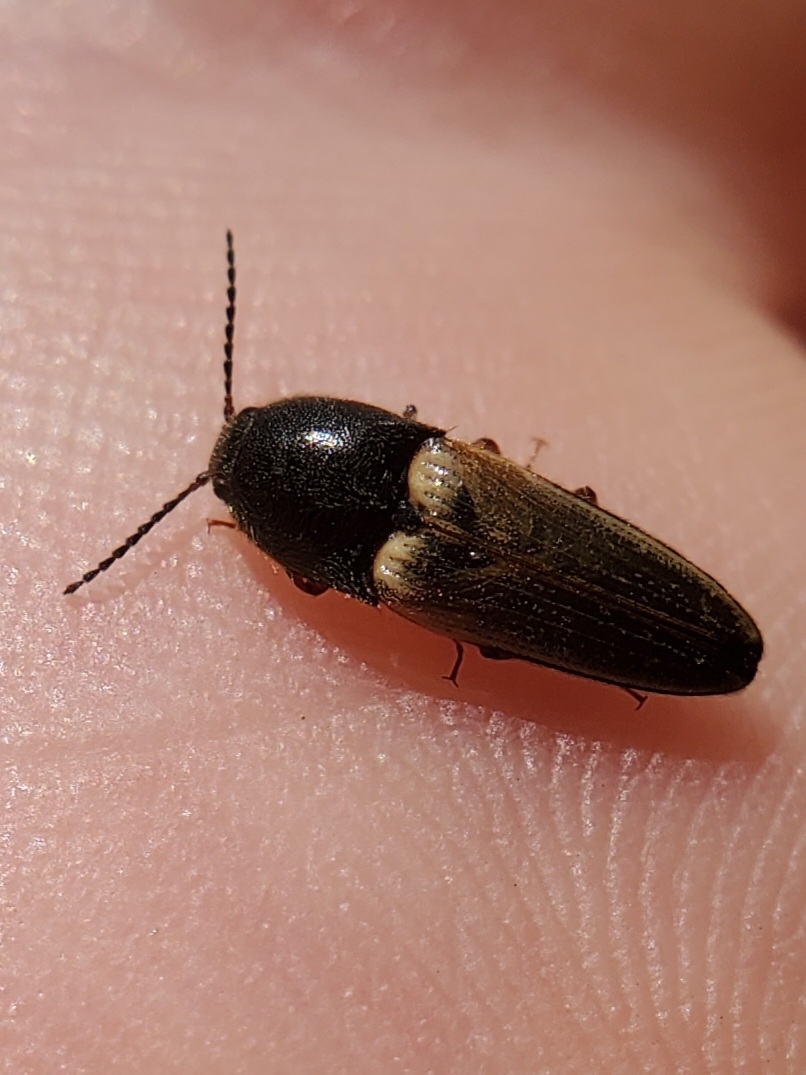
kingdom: Animalia
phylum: Arthropoda
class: Insecta
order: Coleoptera
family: Elateridae
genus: Ampedus
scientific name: Ampedus nigricollis
